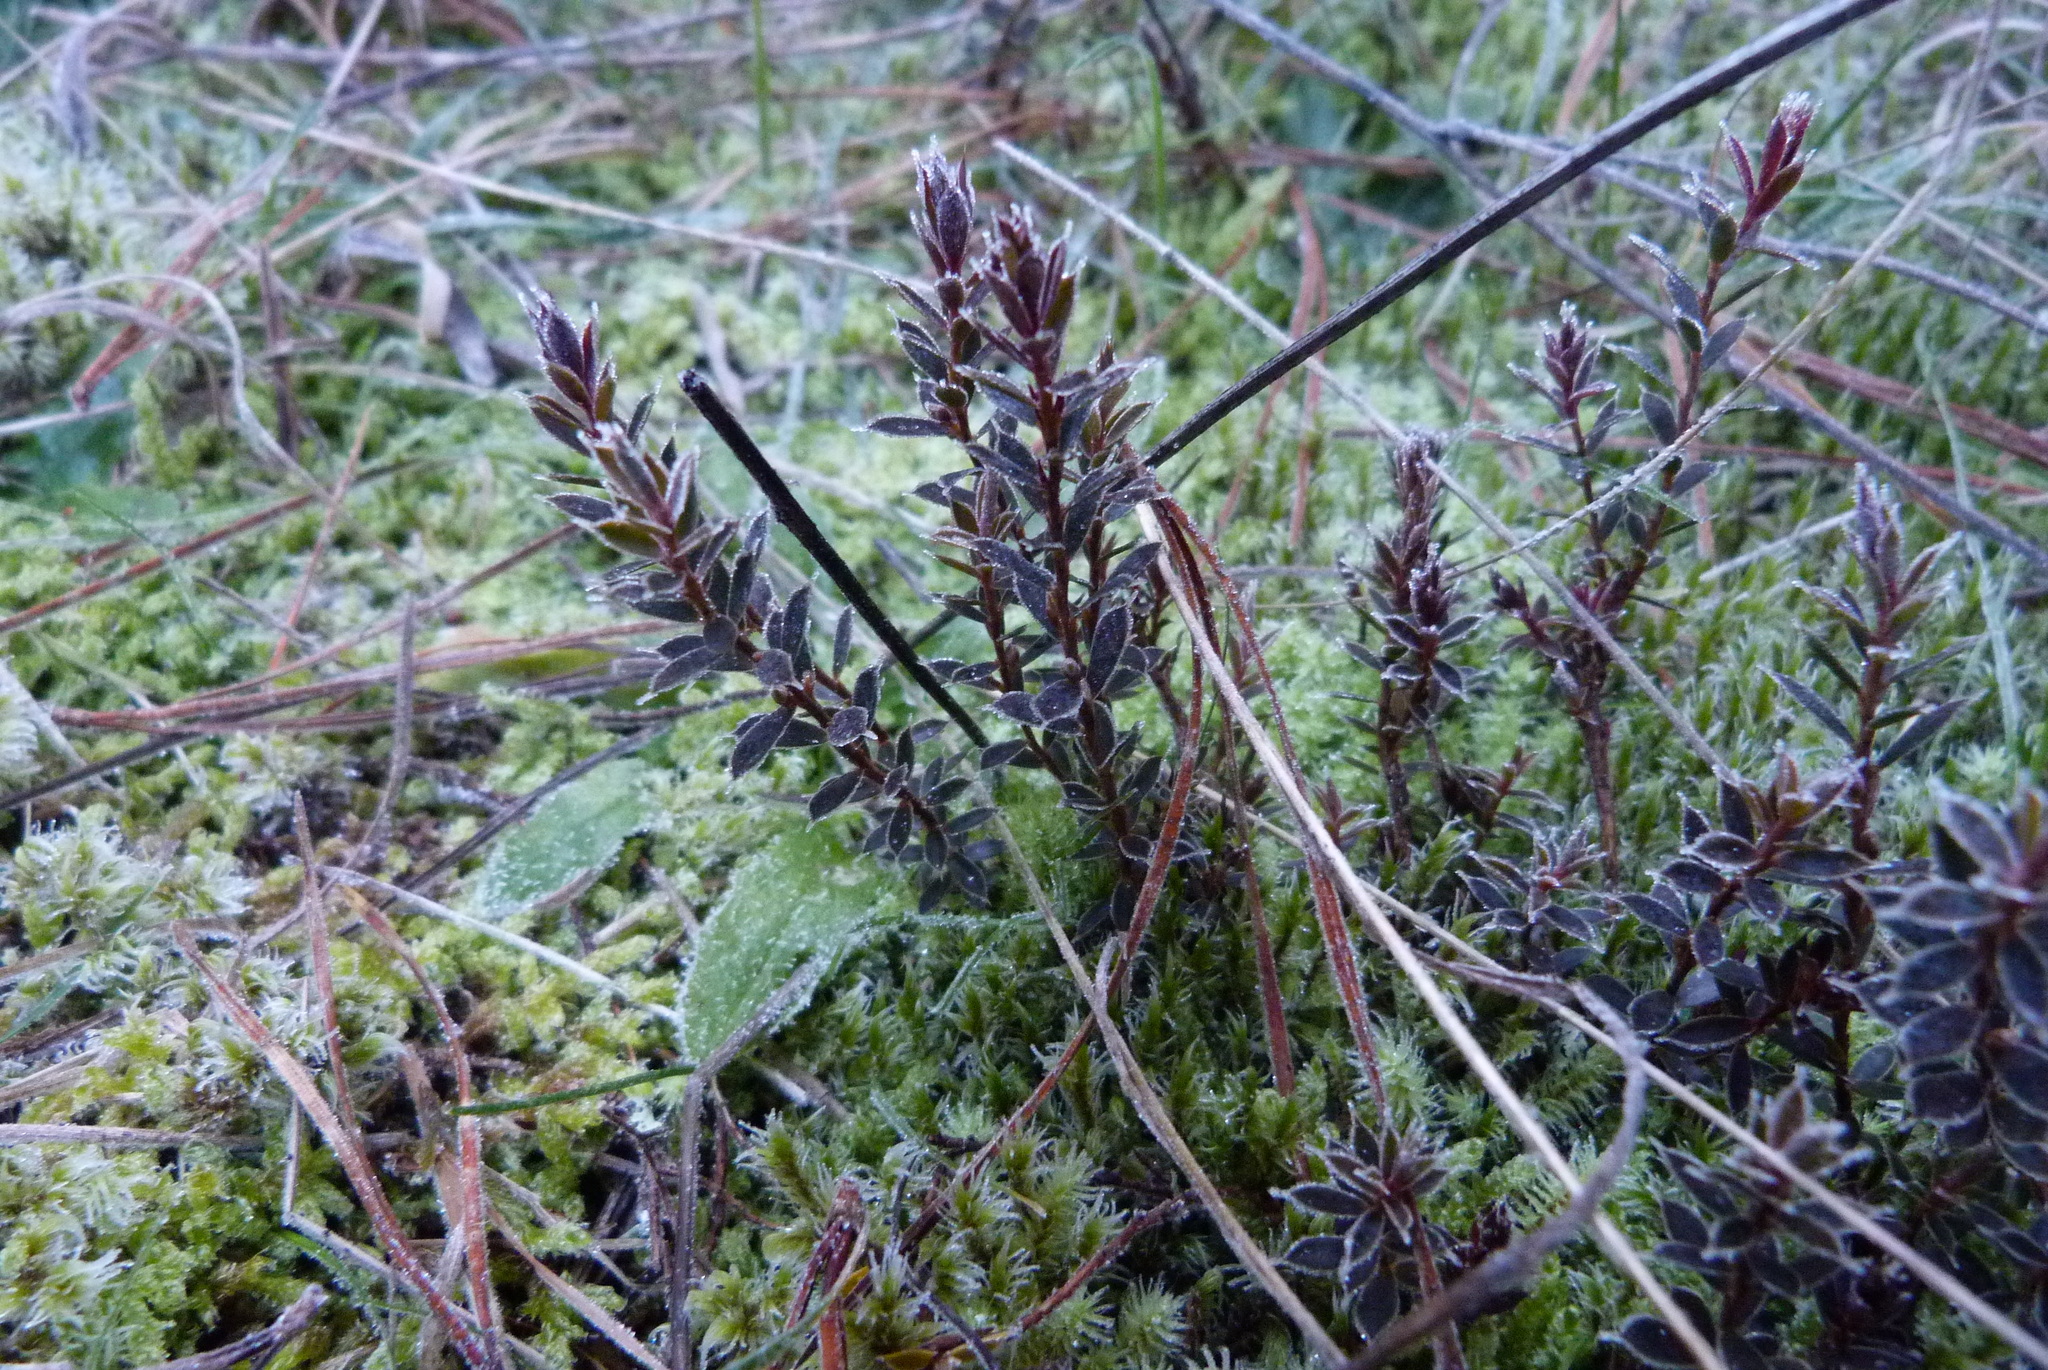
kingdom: Plantae
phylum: Tracheophyta
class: Magnoliopsida
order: Ericales
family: Ericaceae
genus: Styphelia
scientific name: Styphelia nesophila
